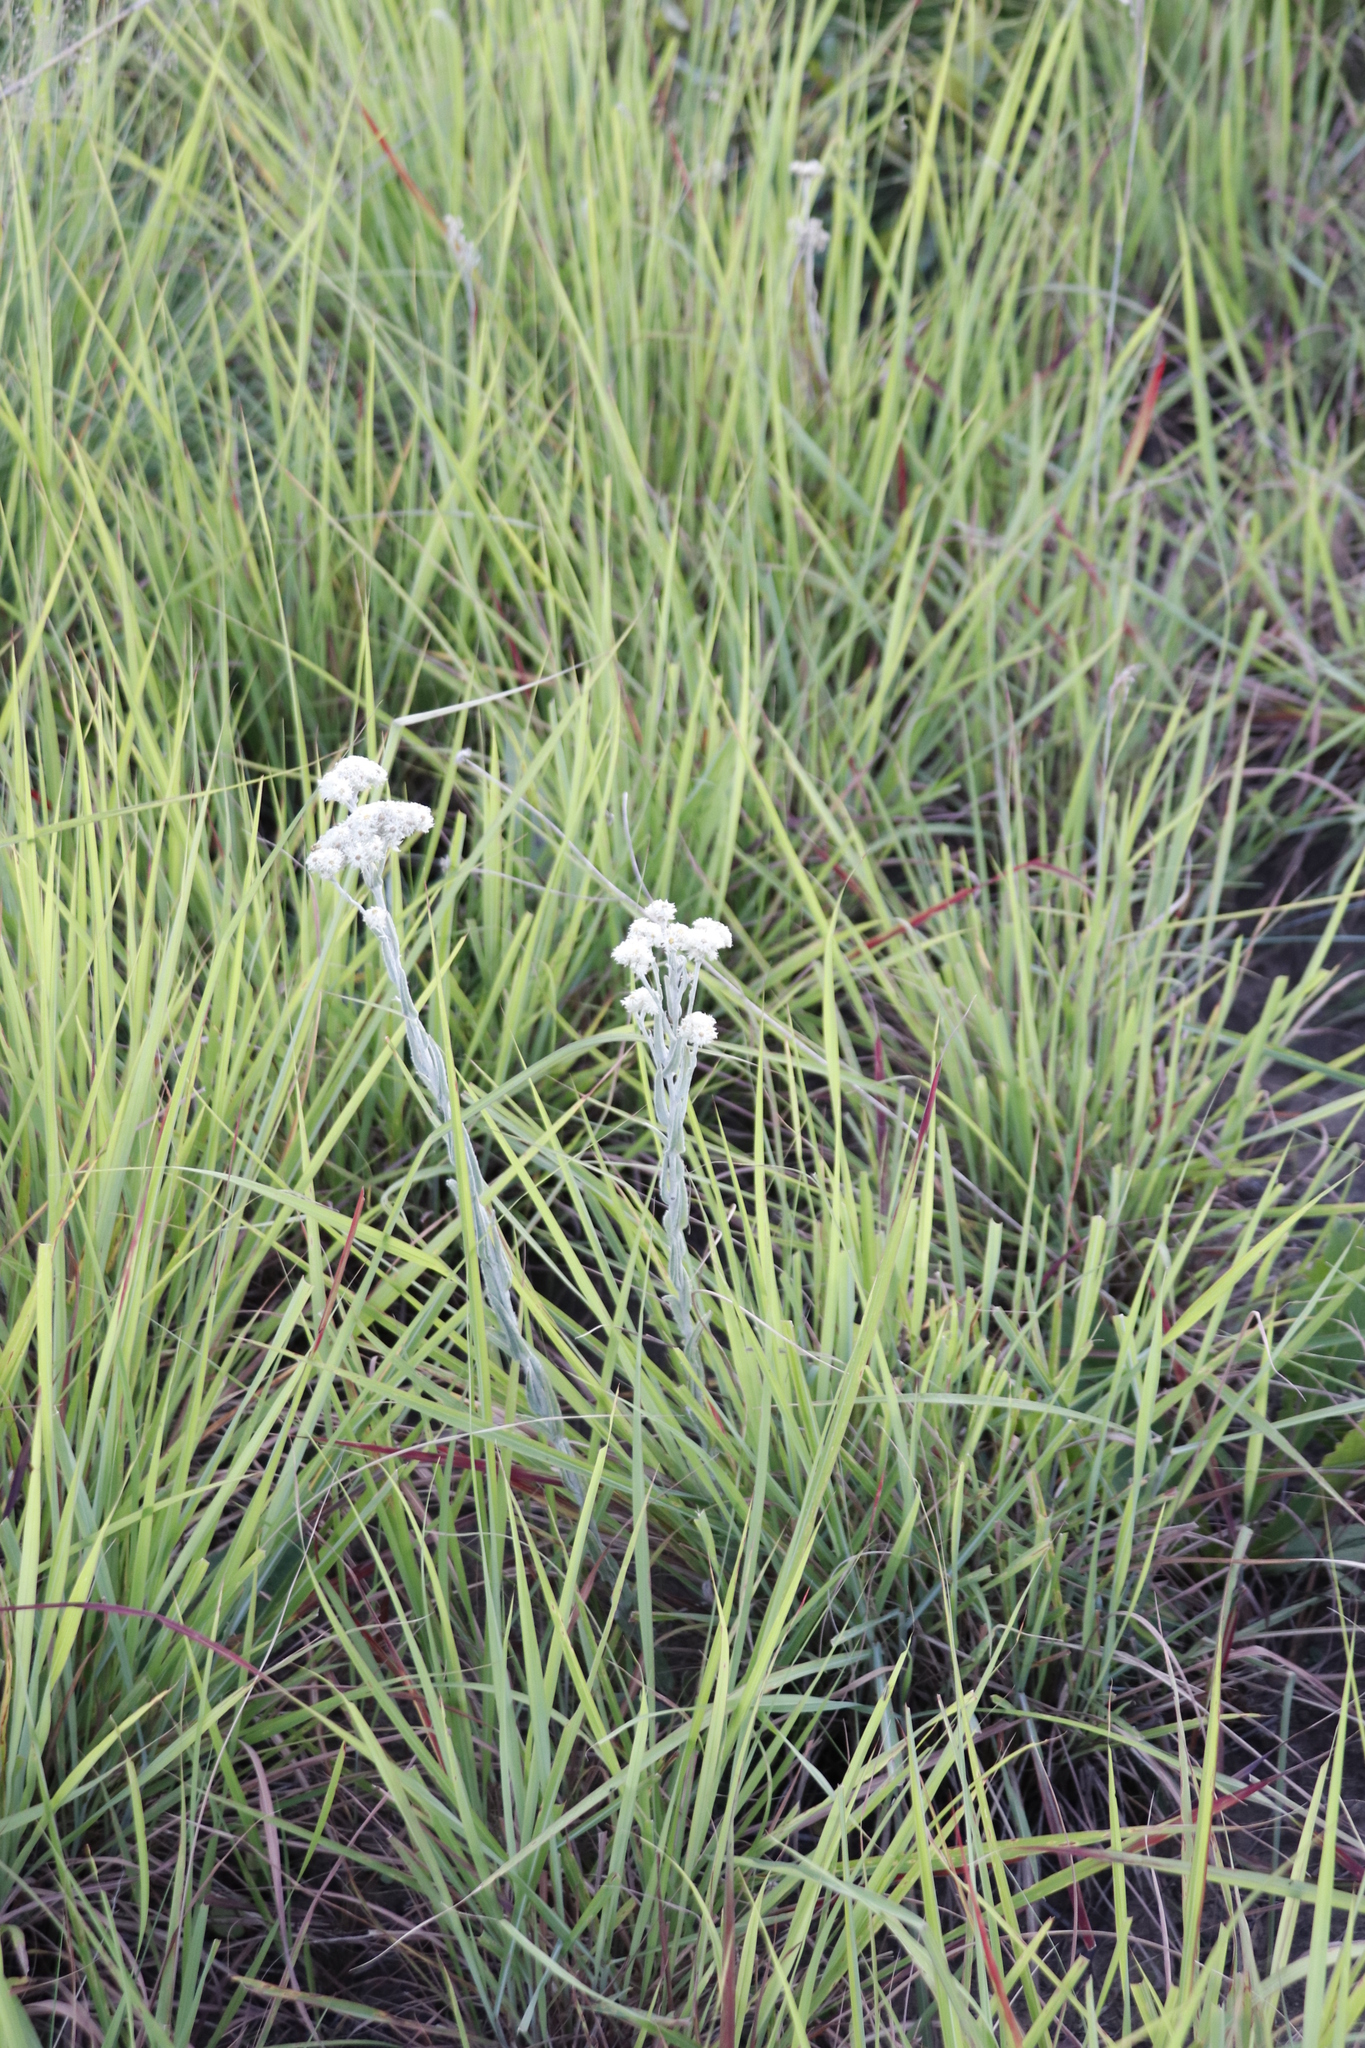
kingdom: Plantae
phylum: Tracheophyta
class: Magnoliopsida
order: Asterales
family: Asteraceae
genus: Helichrysum
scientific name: Helichrysum appendiculatum
